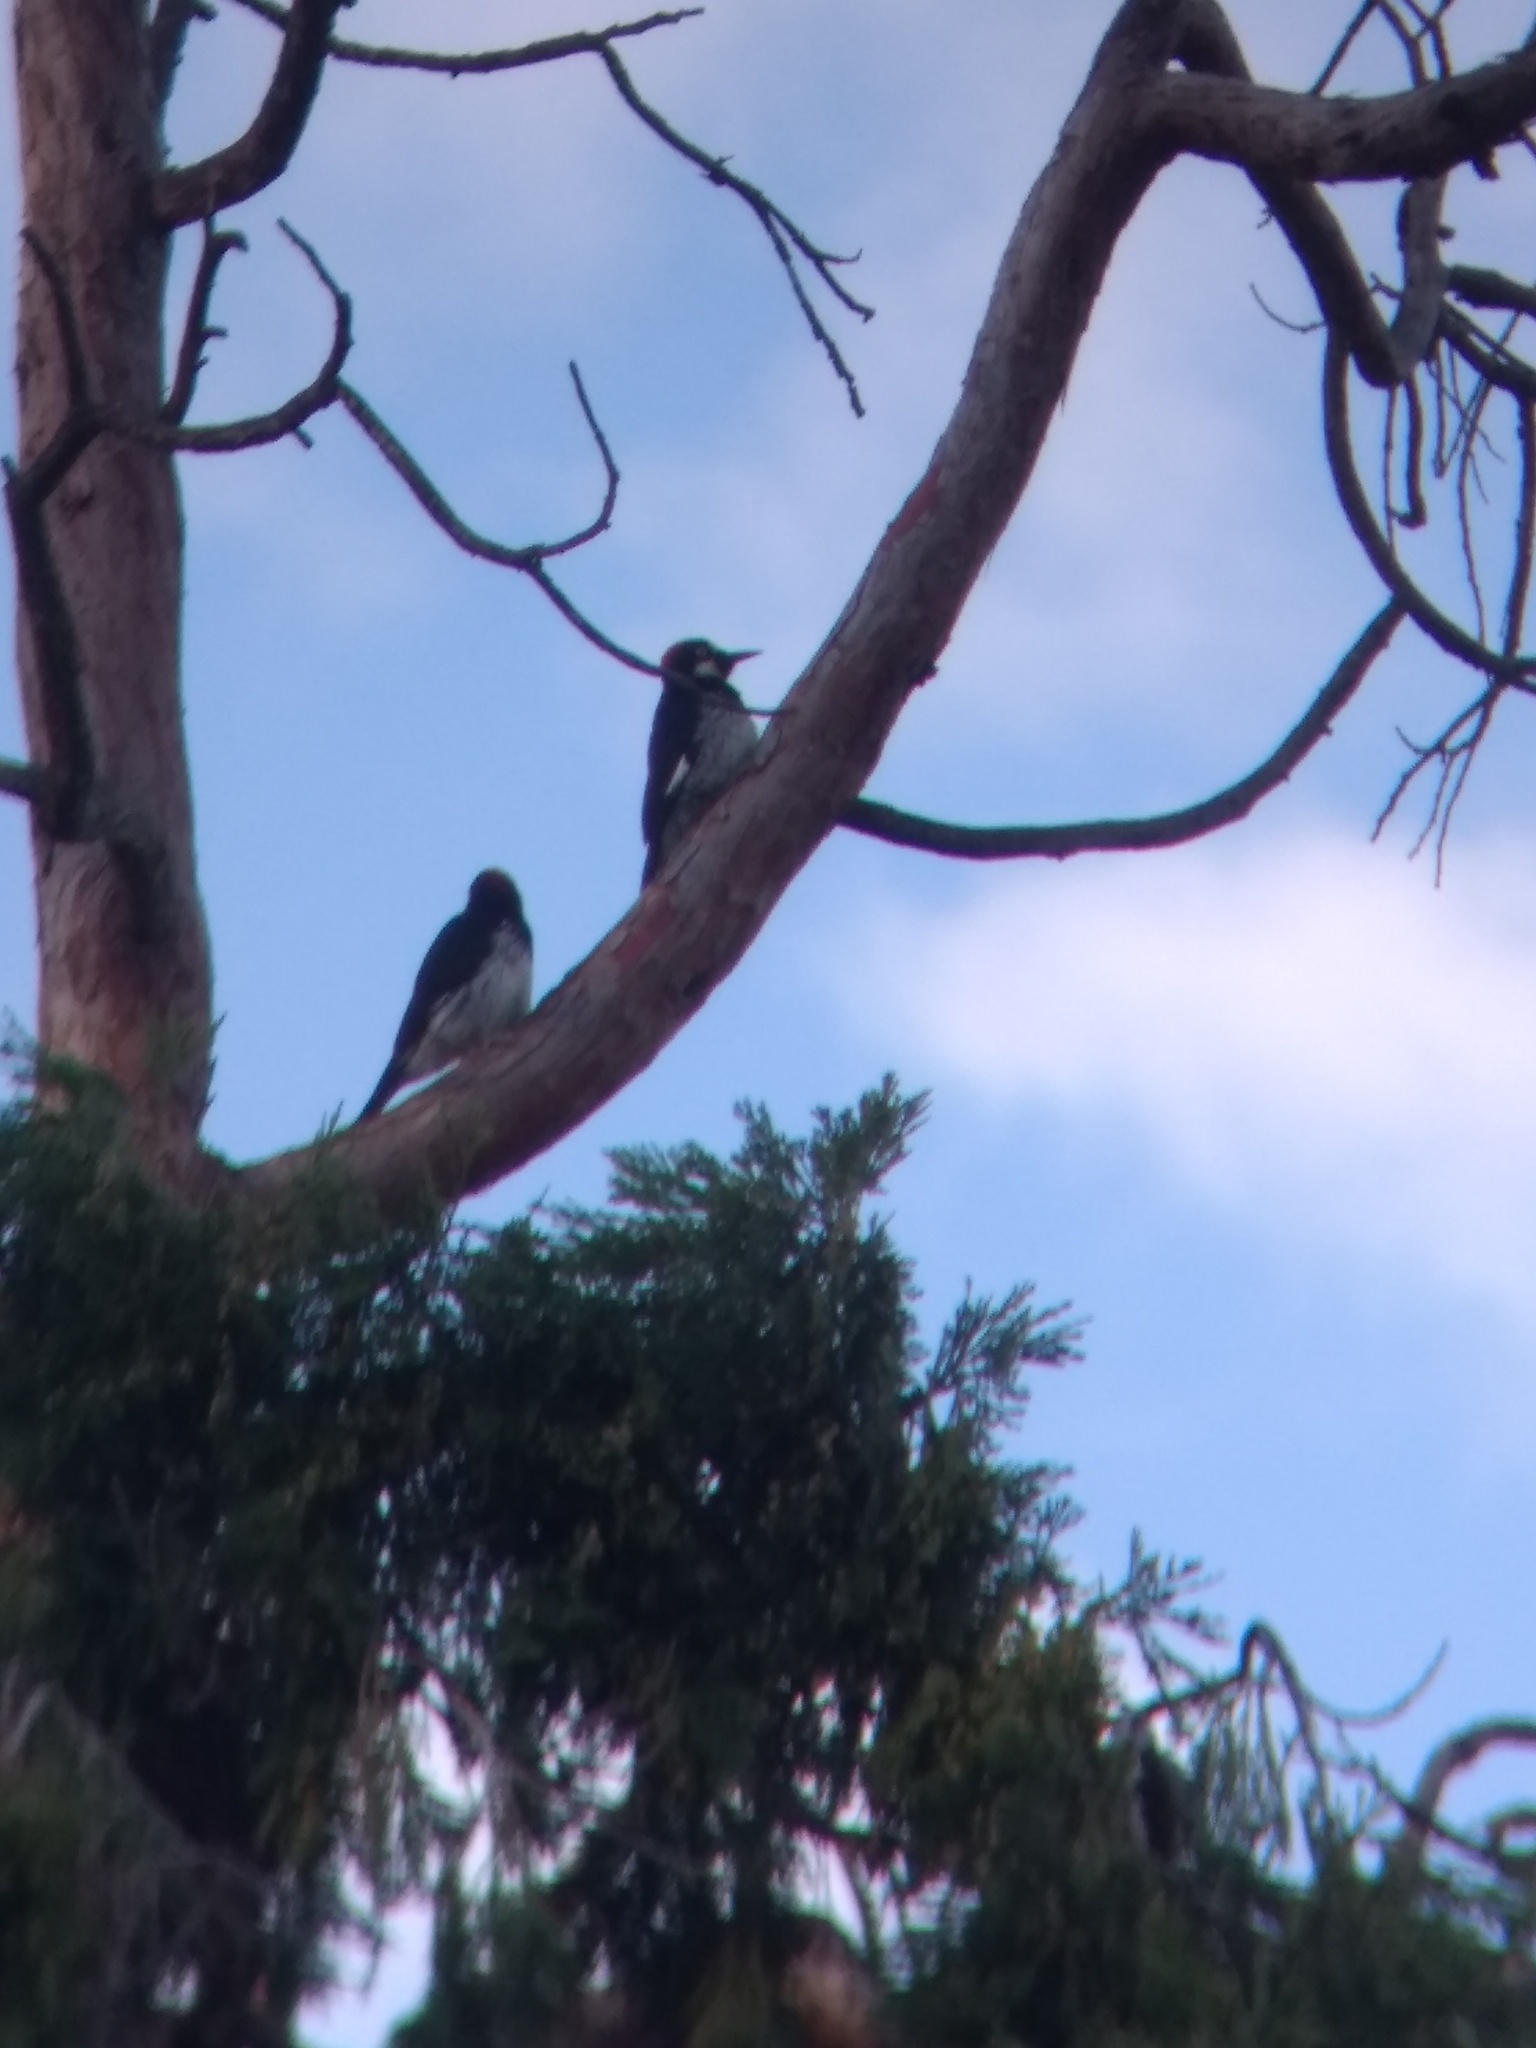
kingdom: Animalia
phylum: Chordata
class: Aves
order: Piciformes
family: Picidae
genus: Melanerpes
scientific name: Melanerpes formicivorus
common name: Acorn woodpecker
